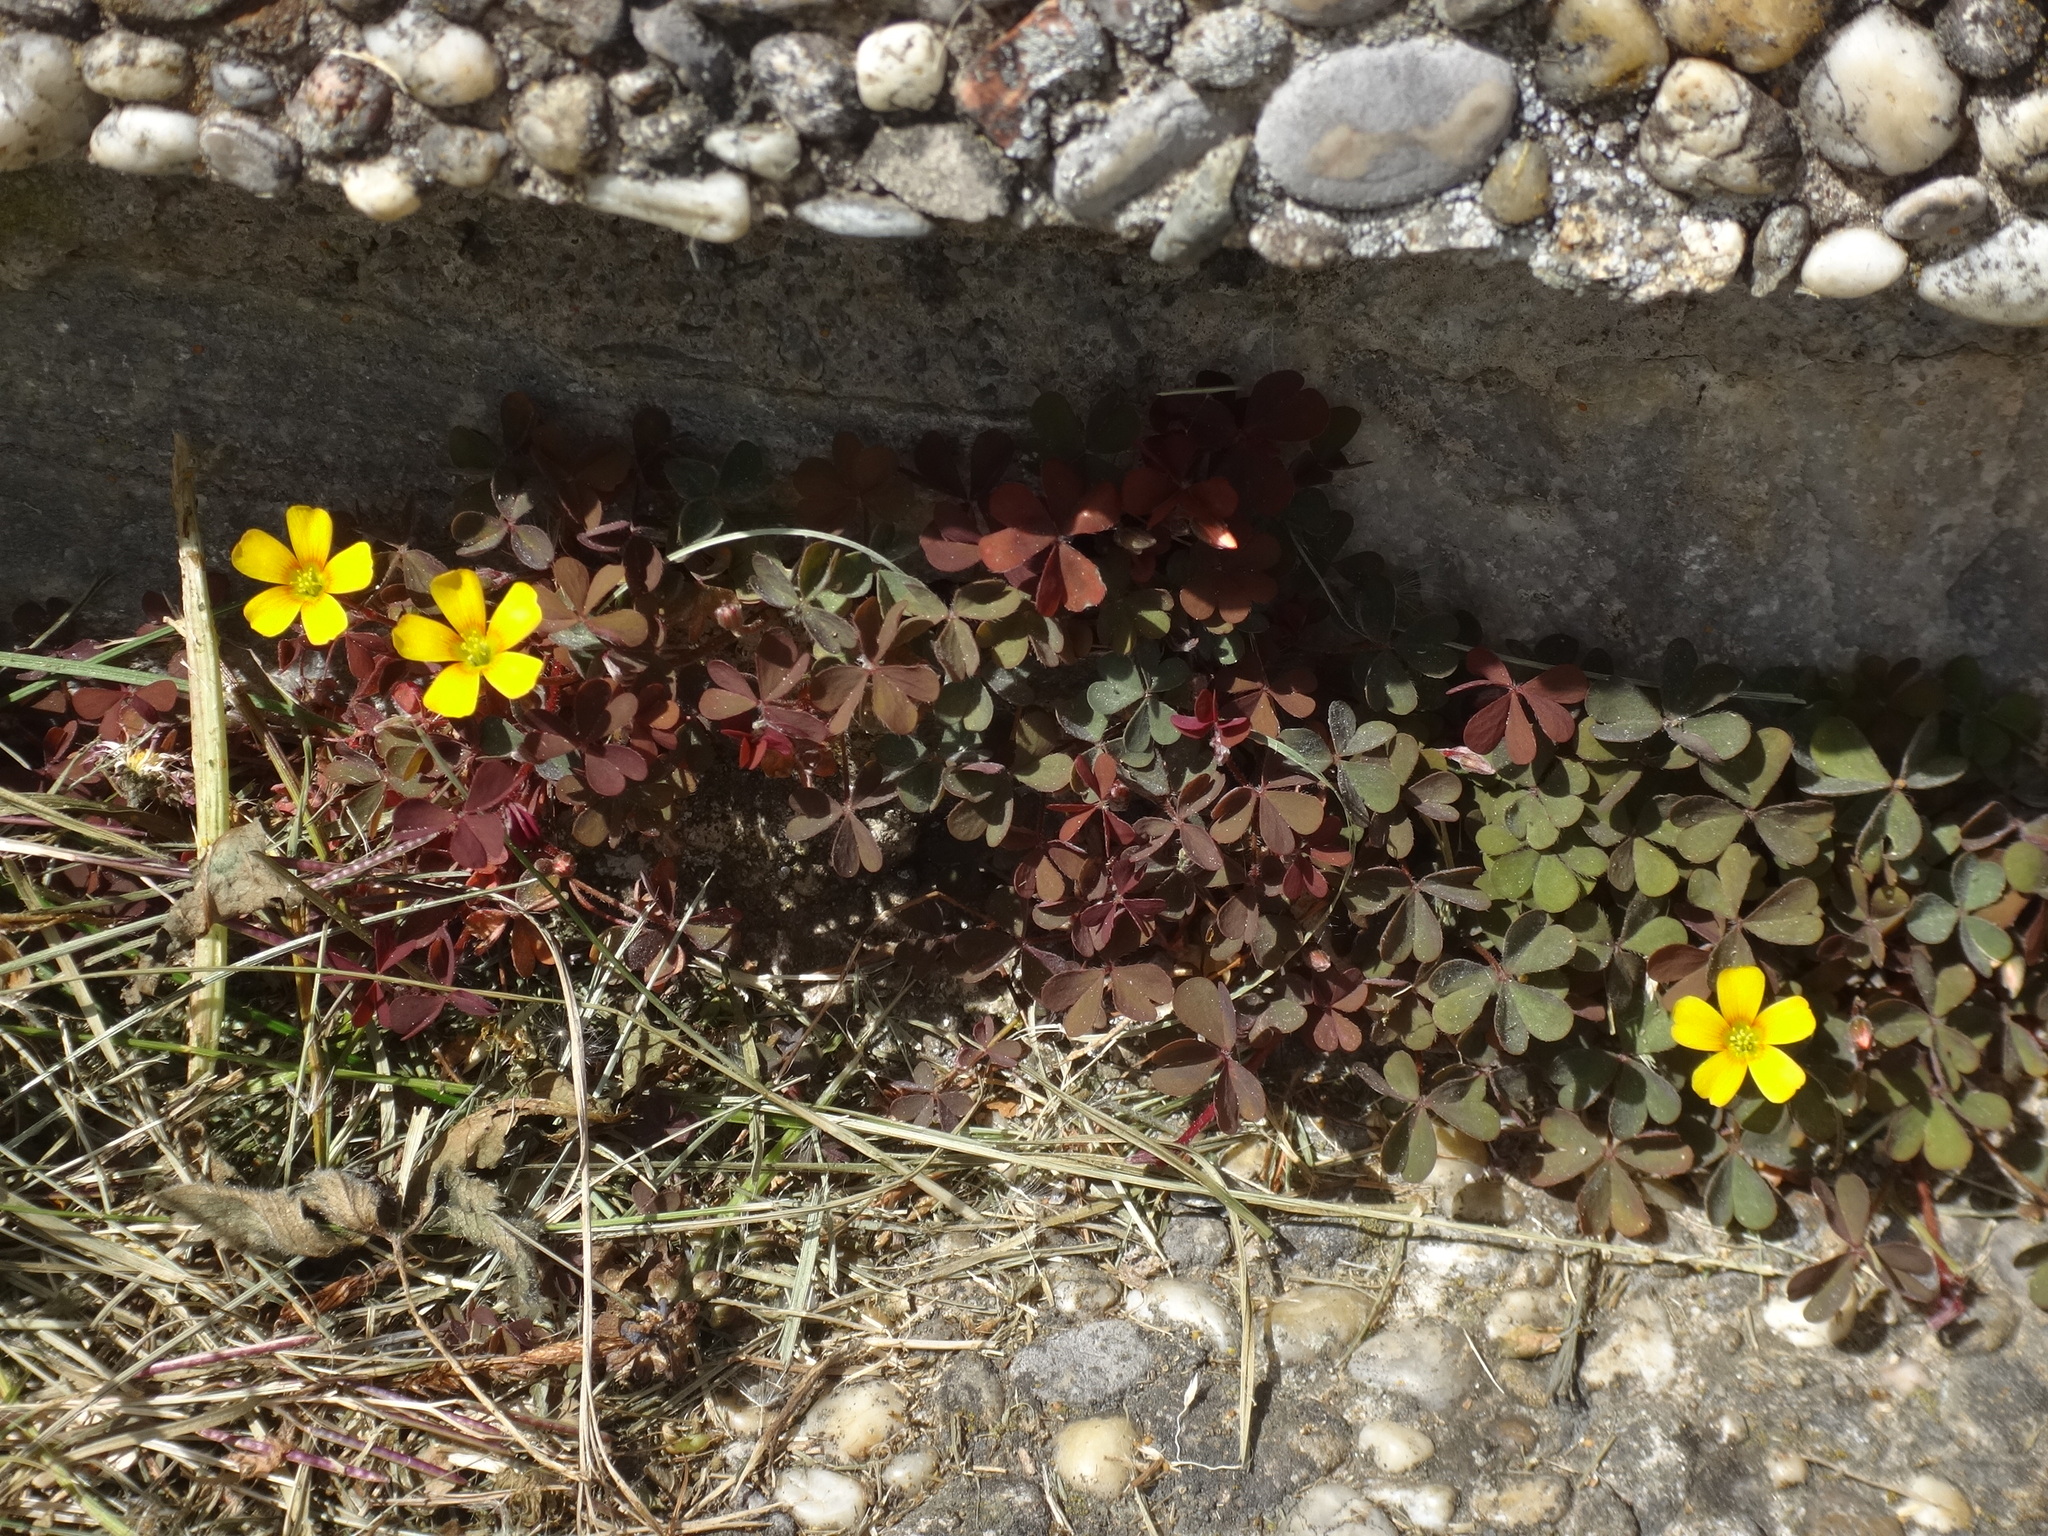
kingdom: Plantae
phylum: Tracheophyta
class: Magnoliopsida
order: Oxalidales
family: Oxalidaceae
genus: Oxalis
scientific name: Oxalis corniculata
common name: Procumbent yellow-sorrel
